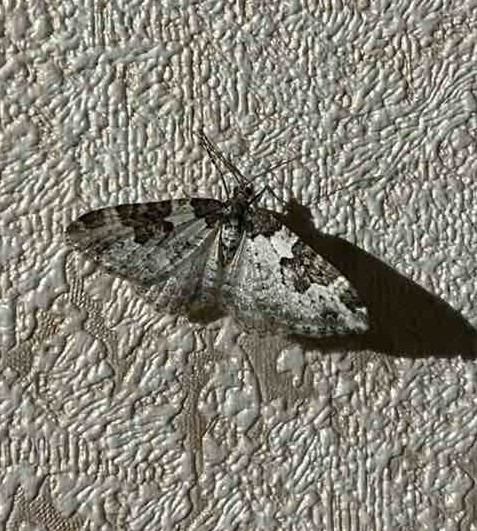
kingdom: Animalia
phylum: Arthropoda
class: Insecta
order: Lepidoptera
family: Geometridae
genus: Xanthorhoe
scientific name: Xanthorhoe fluctuata
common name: Garden carpet
